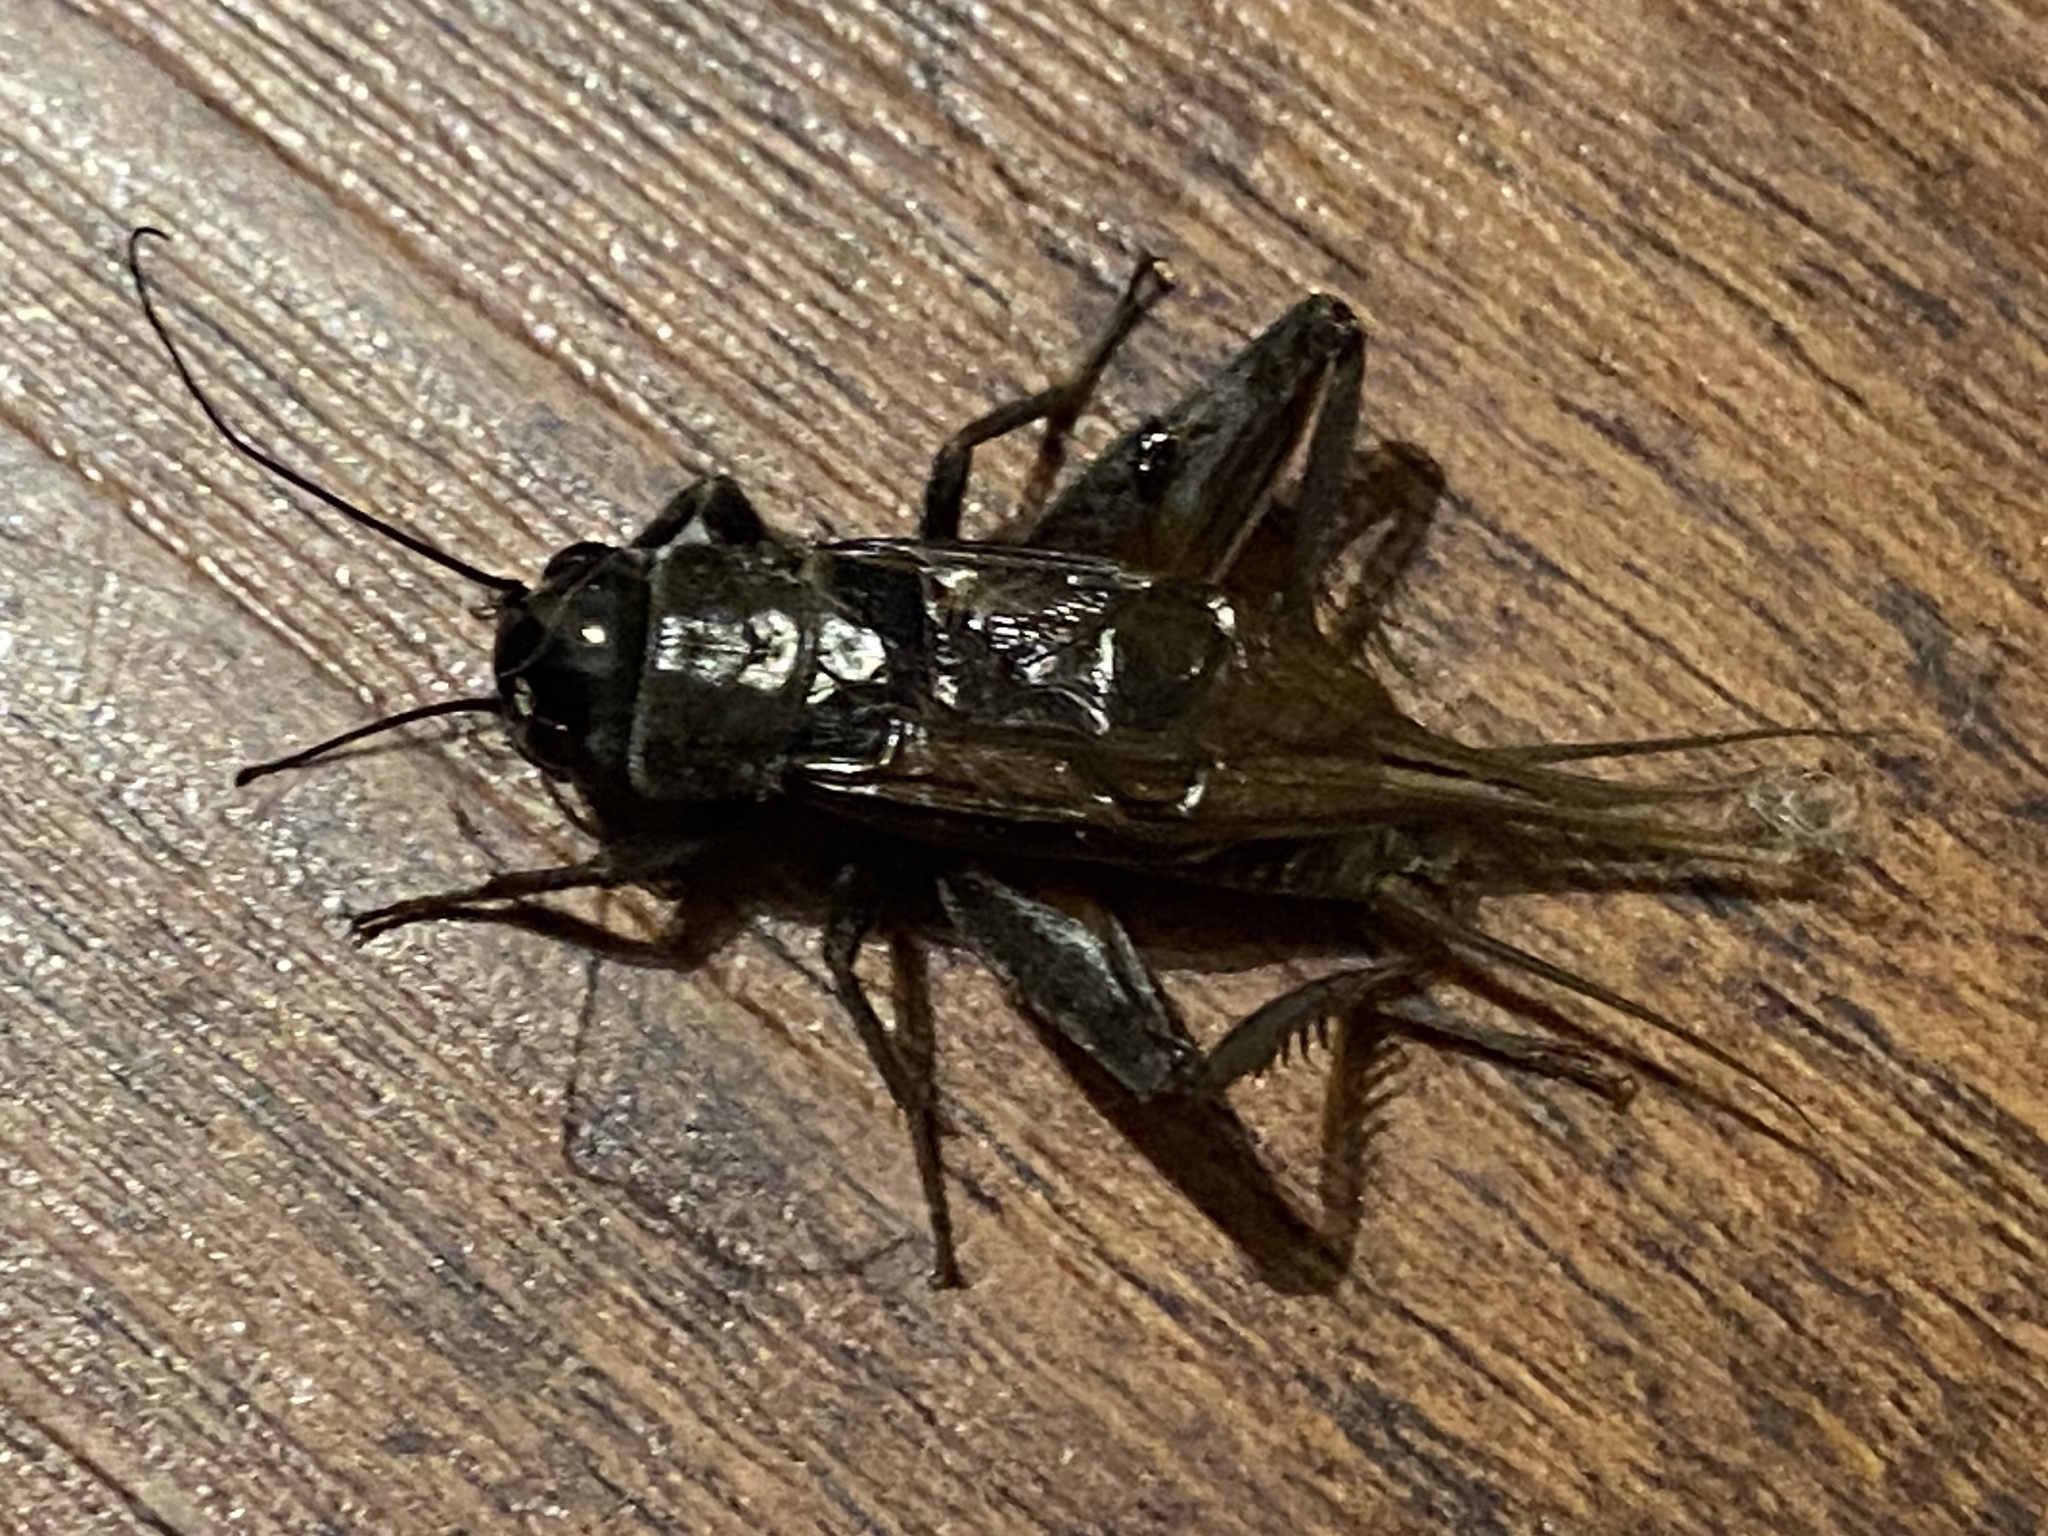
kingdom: Animalia
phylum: Arthropoda
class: Insecta
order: Orthoptera
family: Gryllidae
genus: Gryllus
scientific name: Gryllus
